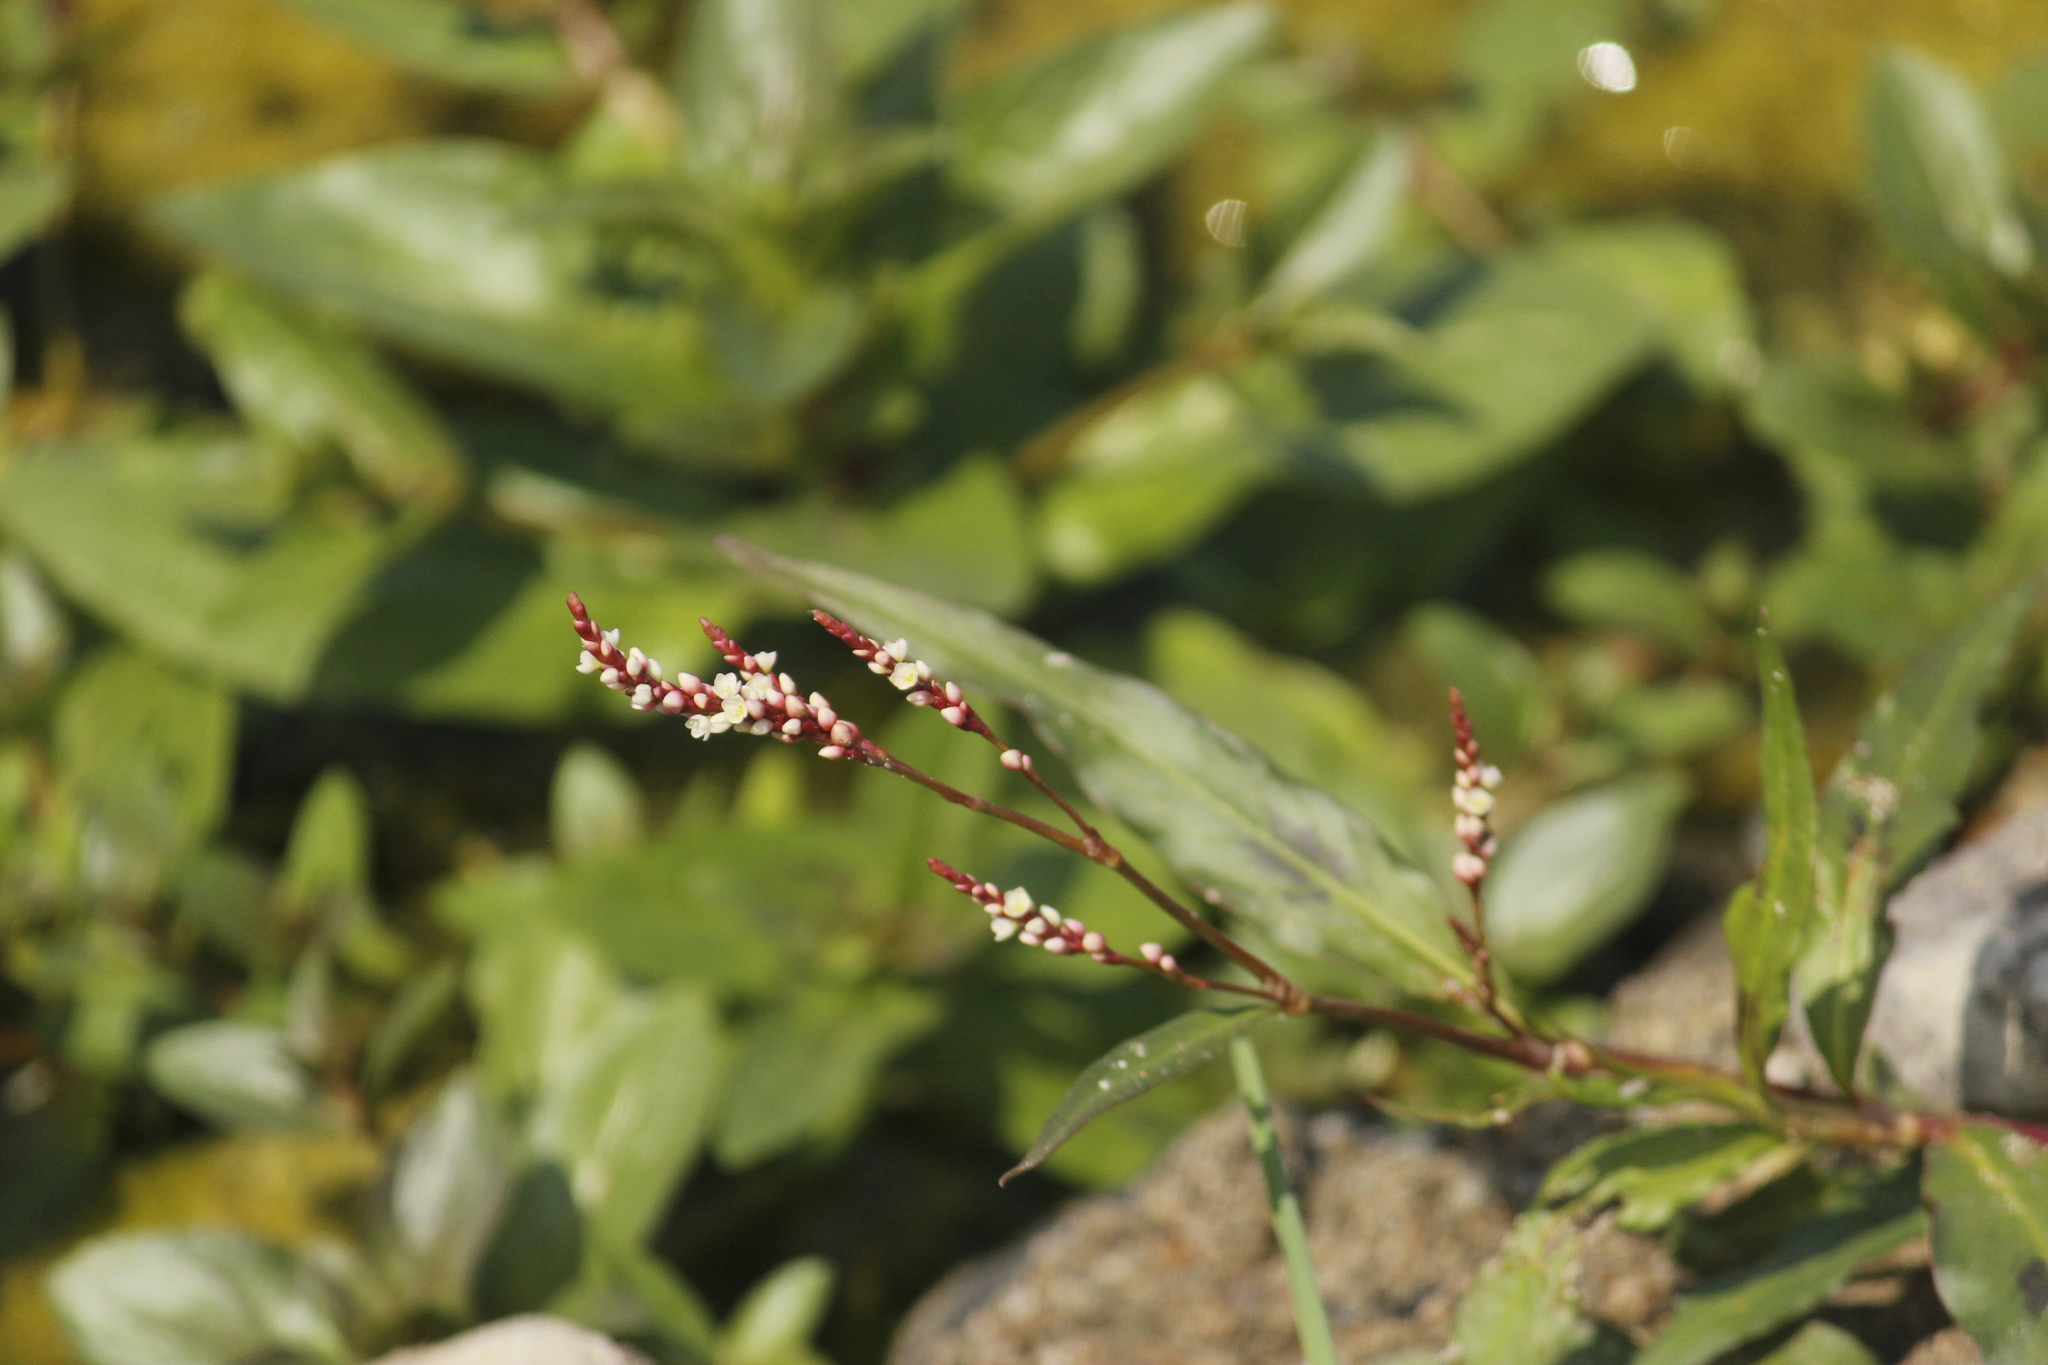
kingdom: Plantae
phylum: Tracheophyta
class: Magnoliopsida
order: Caryophyllales
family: Polygonaceae
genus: Persicaria
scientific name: Persicaria hydropiperoides
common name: Swamp smartweed
